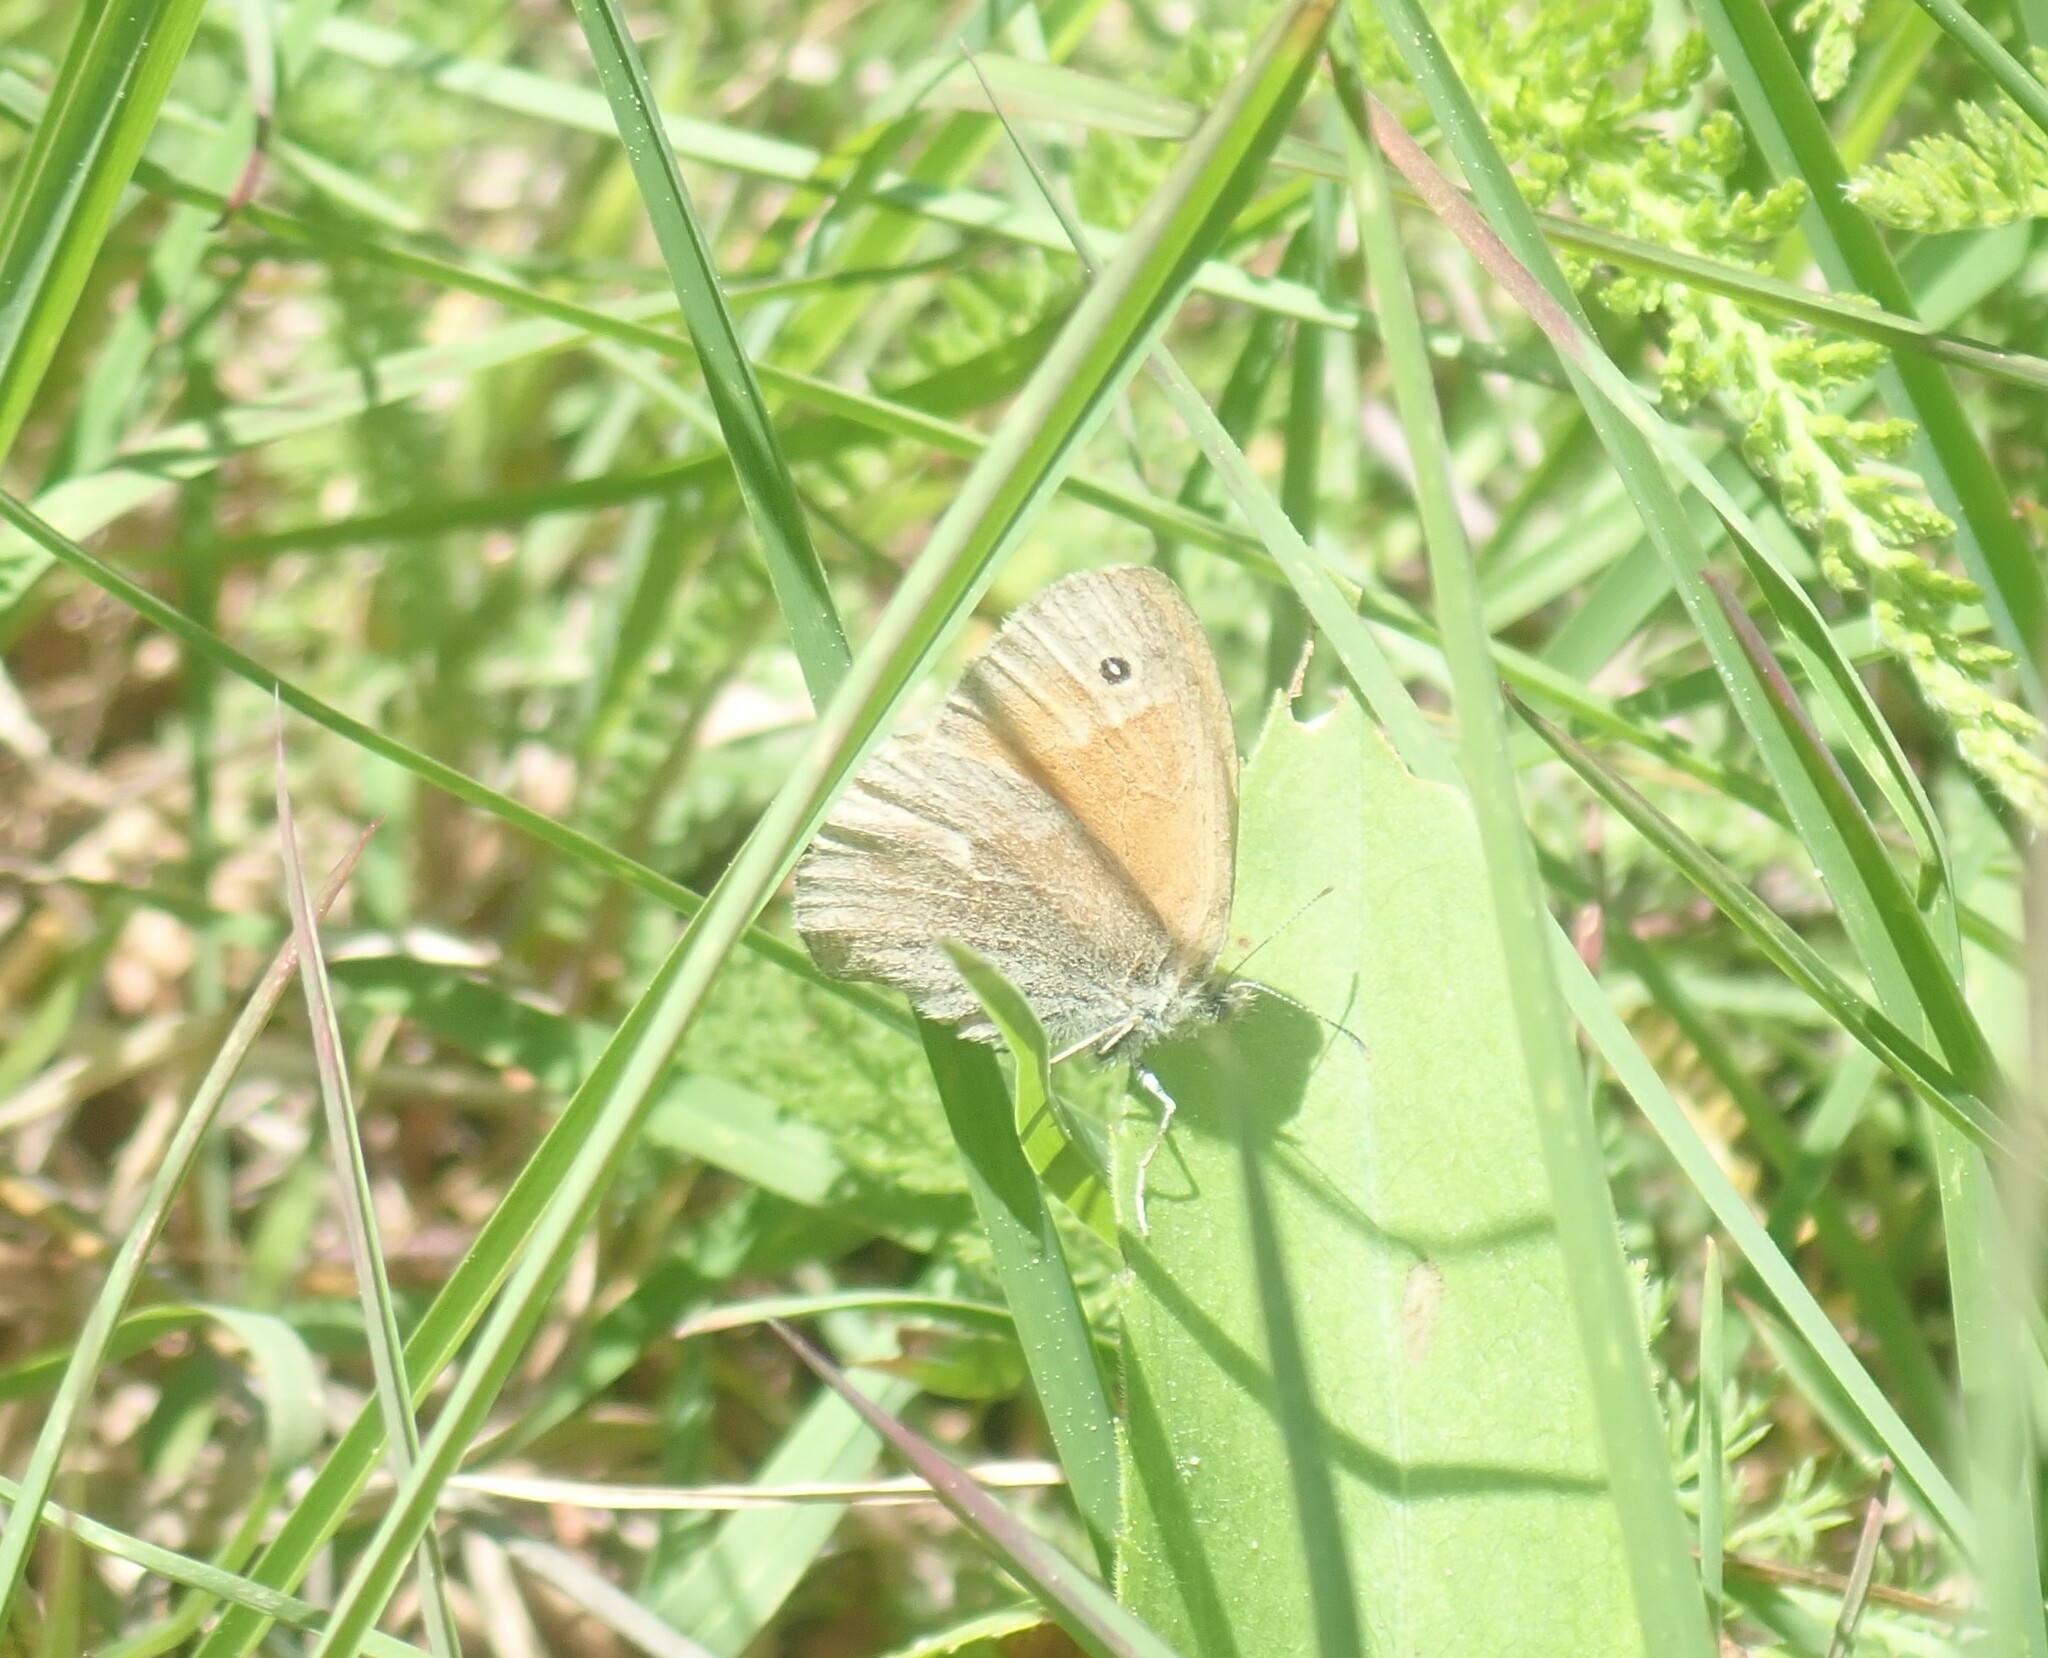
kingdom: Animalia
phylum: Arthropoda
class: Insecta
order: Lepidoptera
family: Nymphalidae
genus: Coenonympha
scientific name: Coenonympha california
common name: Common ringlet
